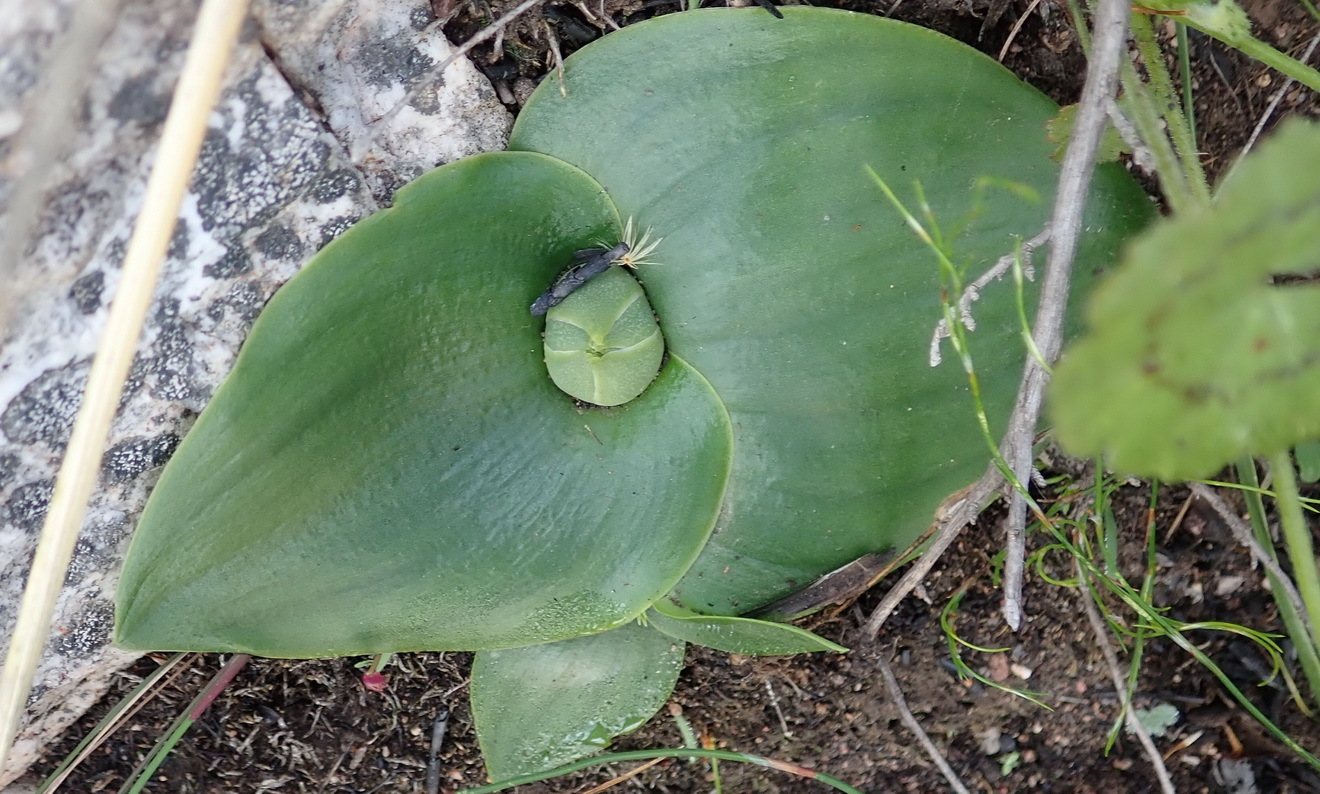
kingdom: Plantae
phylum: Tracheophyta
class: Liliopsida
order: Asparagales
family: Asparagaceae
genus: Massonia
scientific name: Massonia depressa
